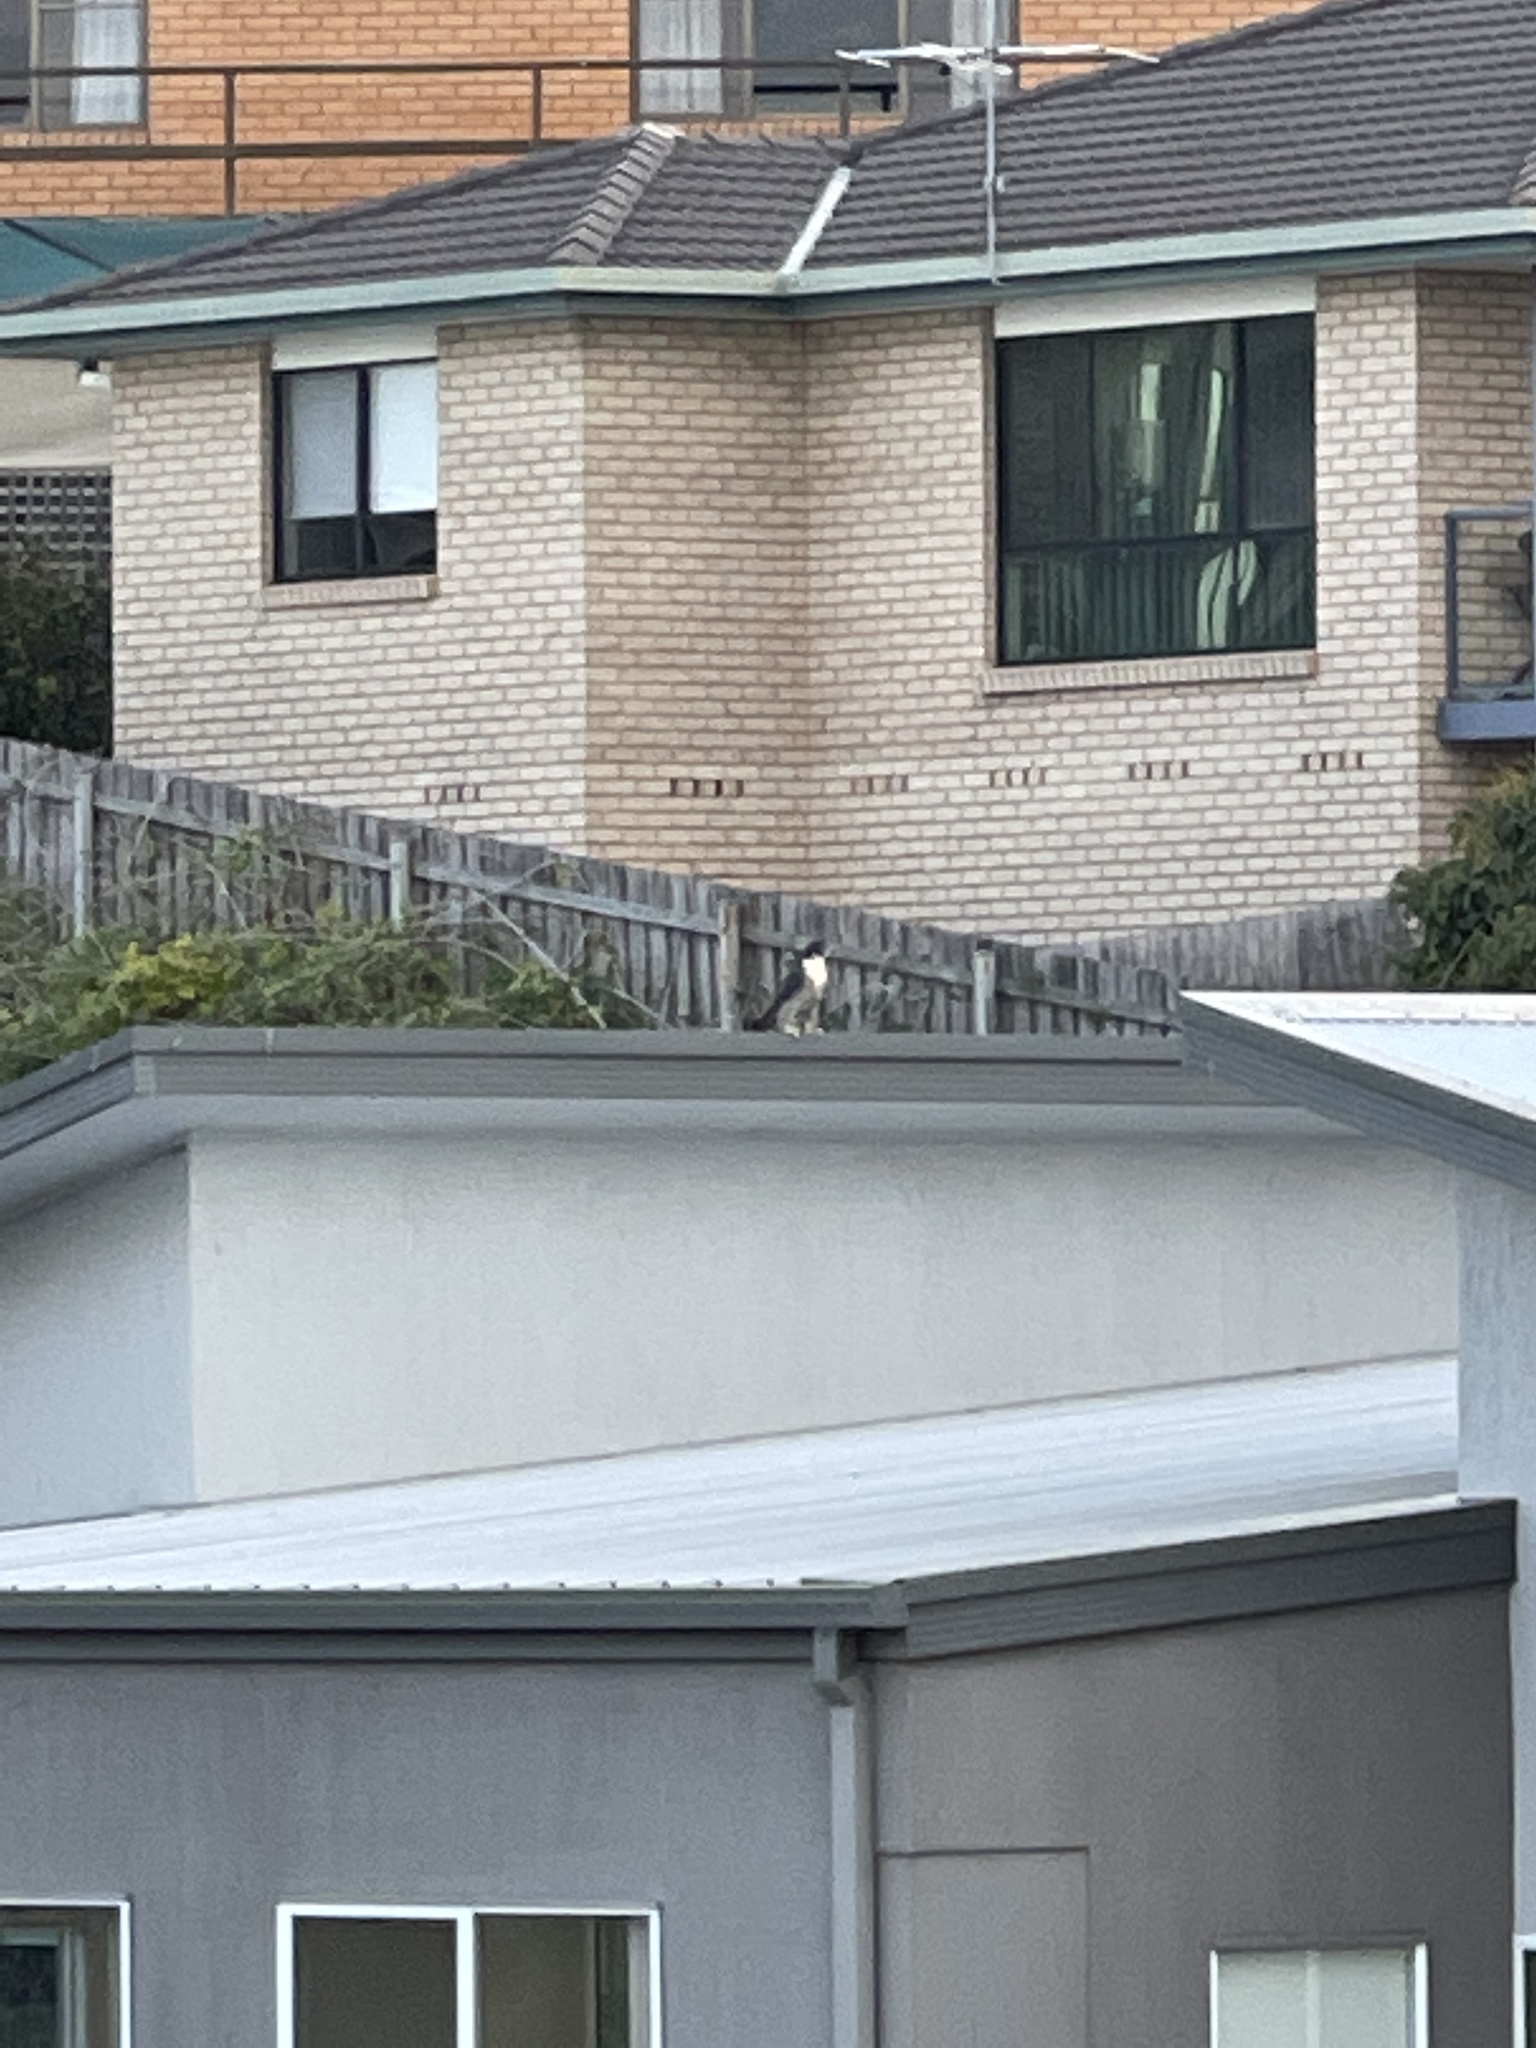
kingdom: Animalia
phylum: Chordata
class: Aves
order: Falconiformes
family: Falconidae
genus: Falco
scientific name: Falco peregrinus
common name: Peregrine falcon
